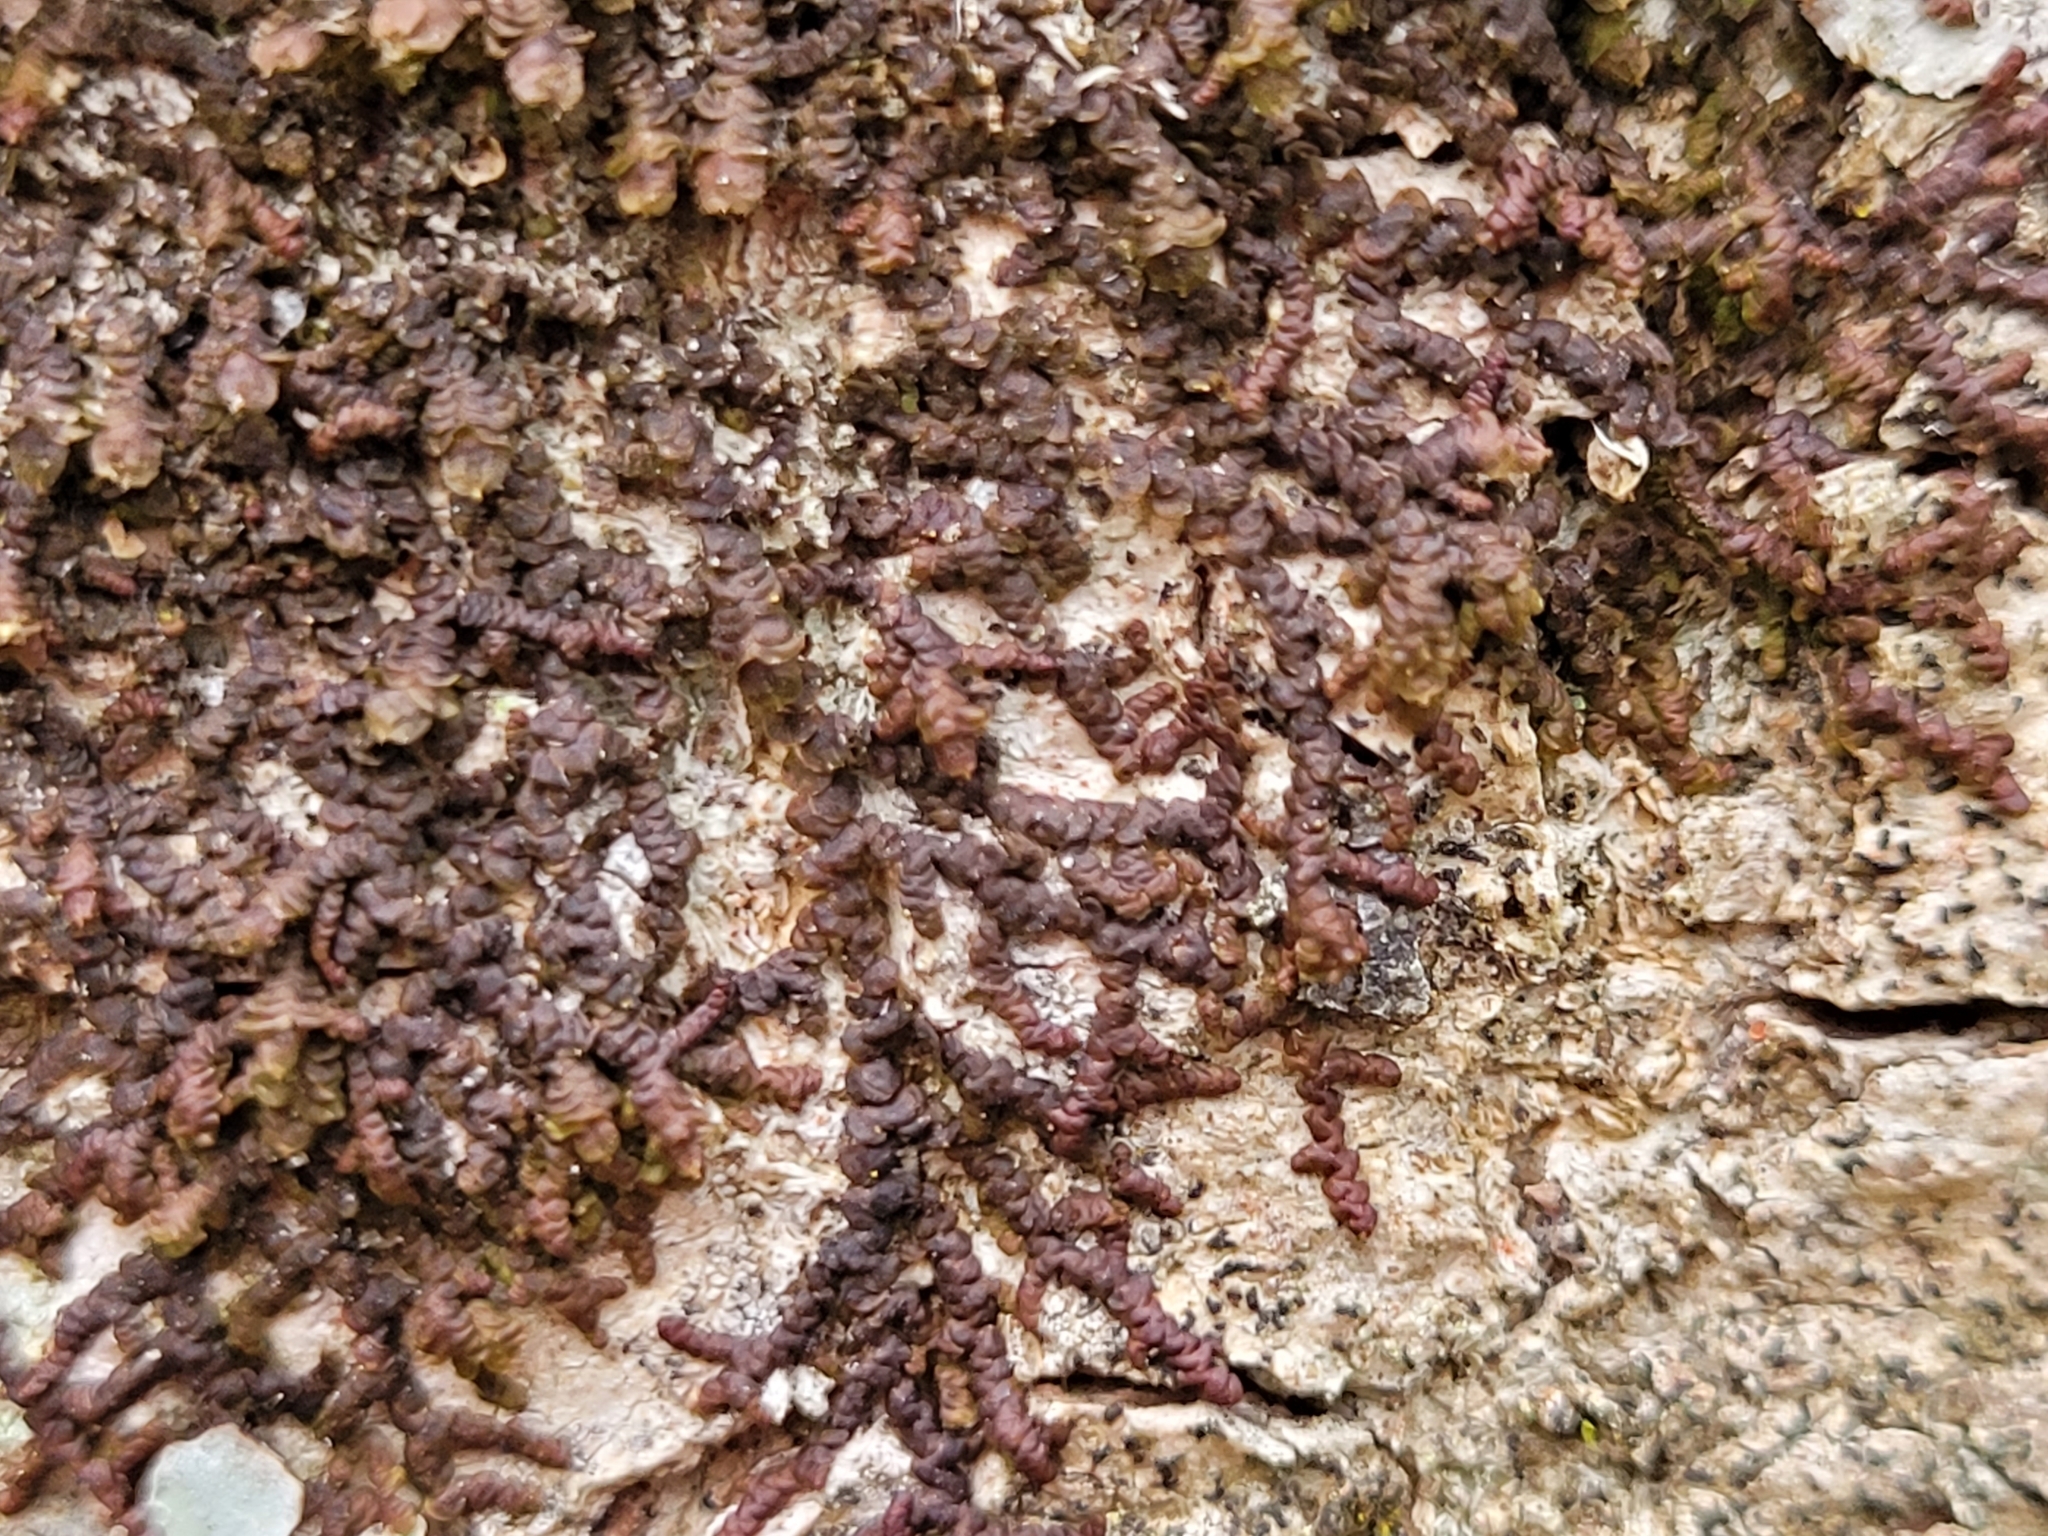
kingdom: Plantae
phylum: Marchantiophyta
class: Jungermanniopsida
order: Porellales
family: Frullaniaceae
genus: Frullania
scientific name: Frullania dilatata
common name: Dilated scalewort
